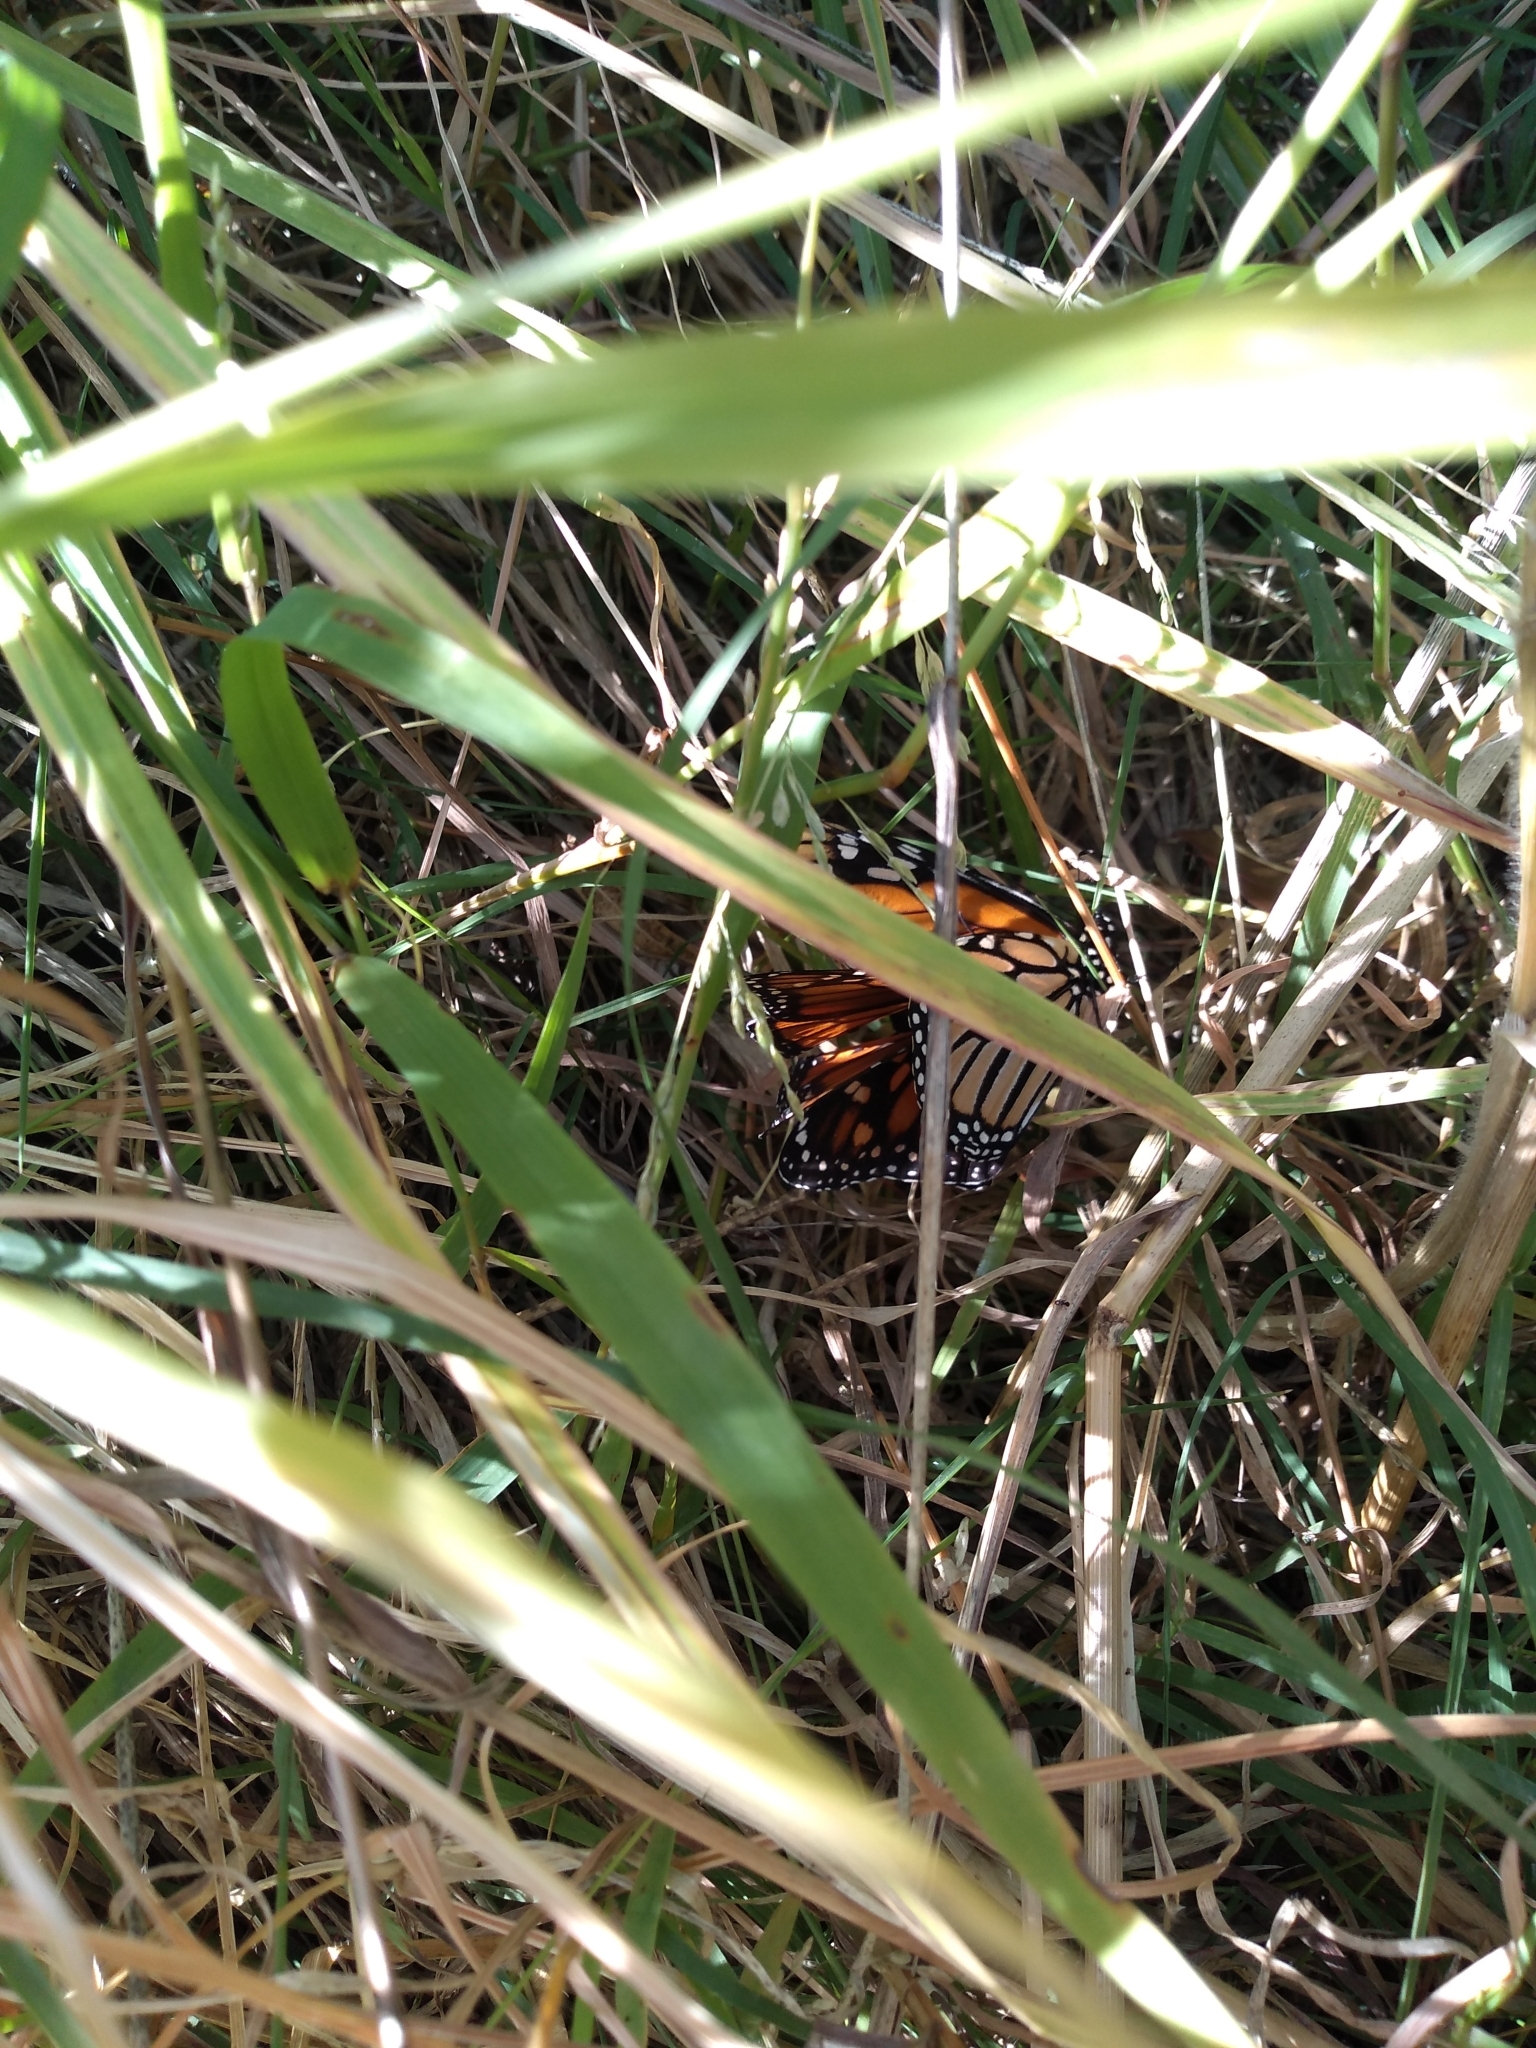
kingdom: Animalia
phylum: Arthropoda
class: Insecta
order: Lepidoptera
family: Nymphalidae
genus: Danaus
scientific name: Danaus plexippus
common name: Monarch
